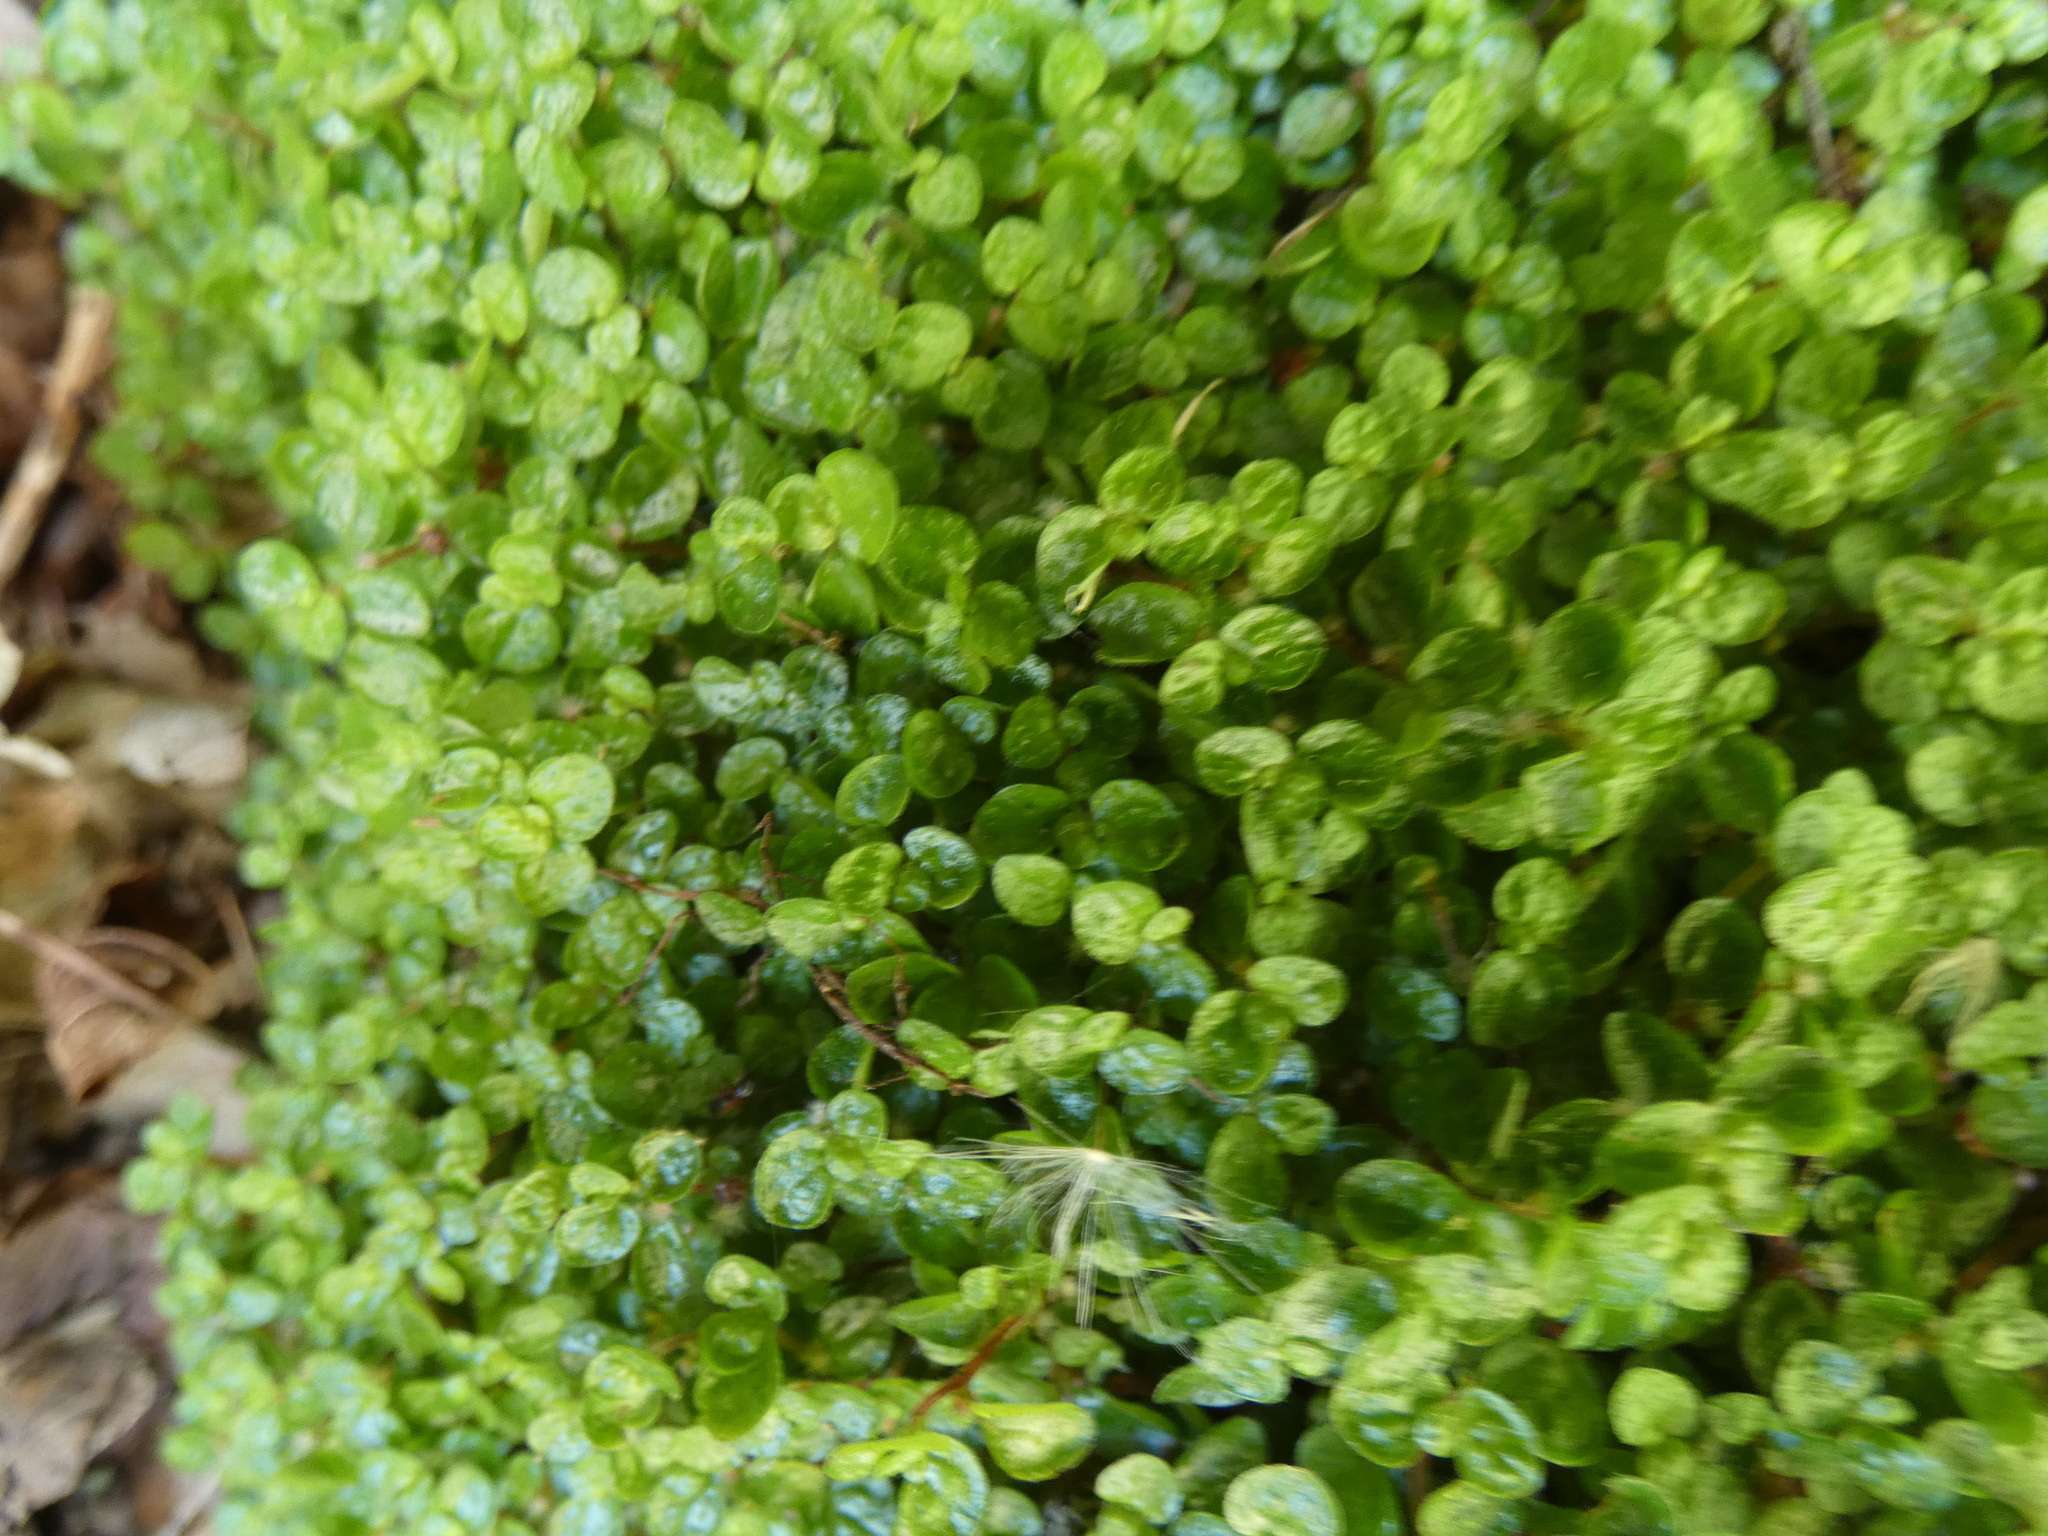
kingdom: Plantae
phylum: Tracheophyta
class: Magnoliopsida
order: Rosales
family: Urticaceae
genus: Soleirolia
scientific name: Soleirolia soleirolii
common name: Mind-your-own-business
